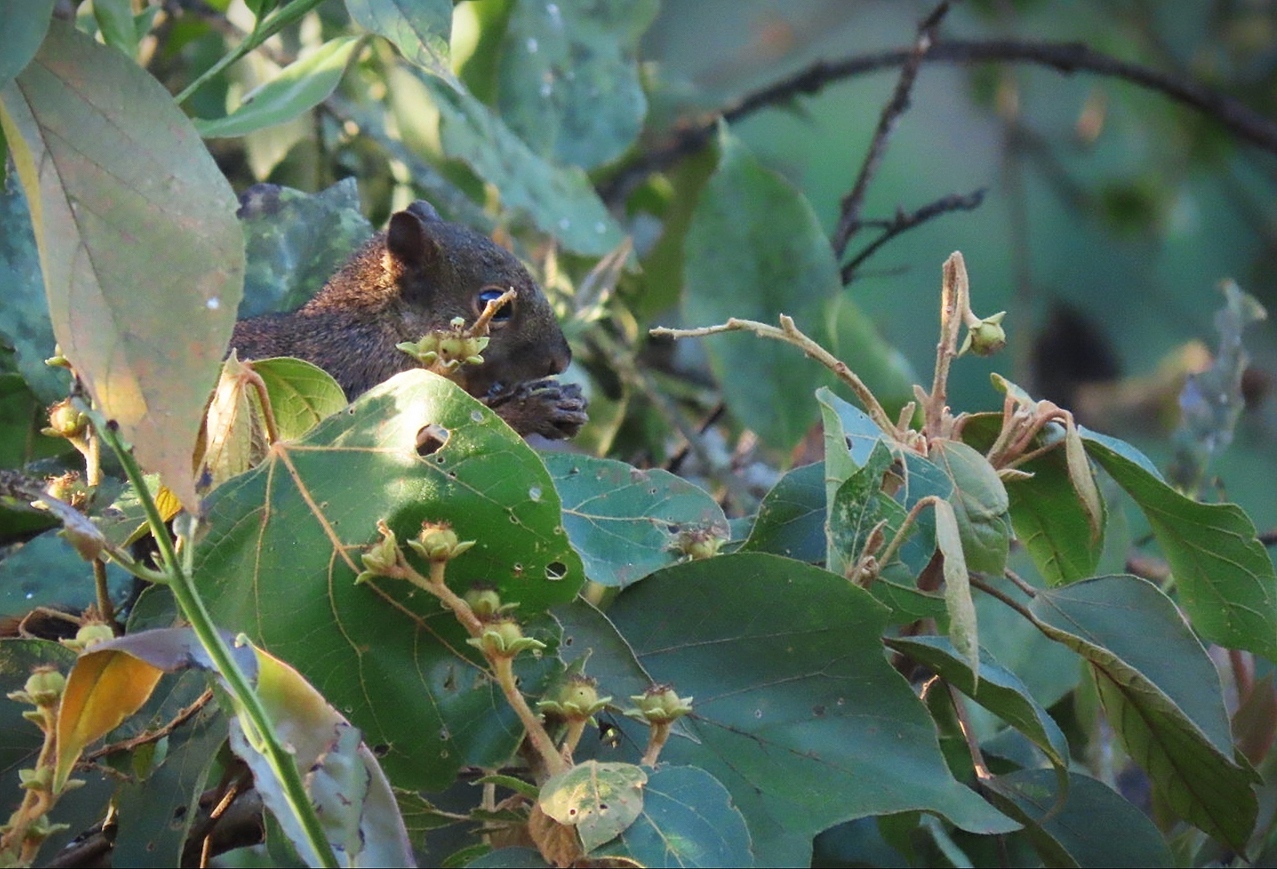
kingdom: Animalia
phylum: Chordata
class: Mammalia
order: Rodentia
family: Sciuridae
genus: Sciurus
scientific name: Sciurus granatensis
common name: Red-tailed squirrel
